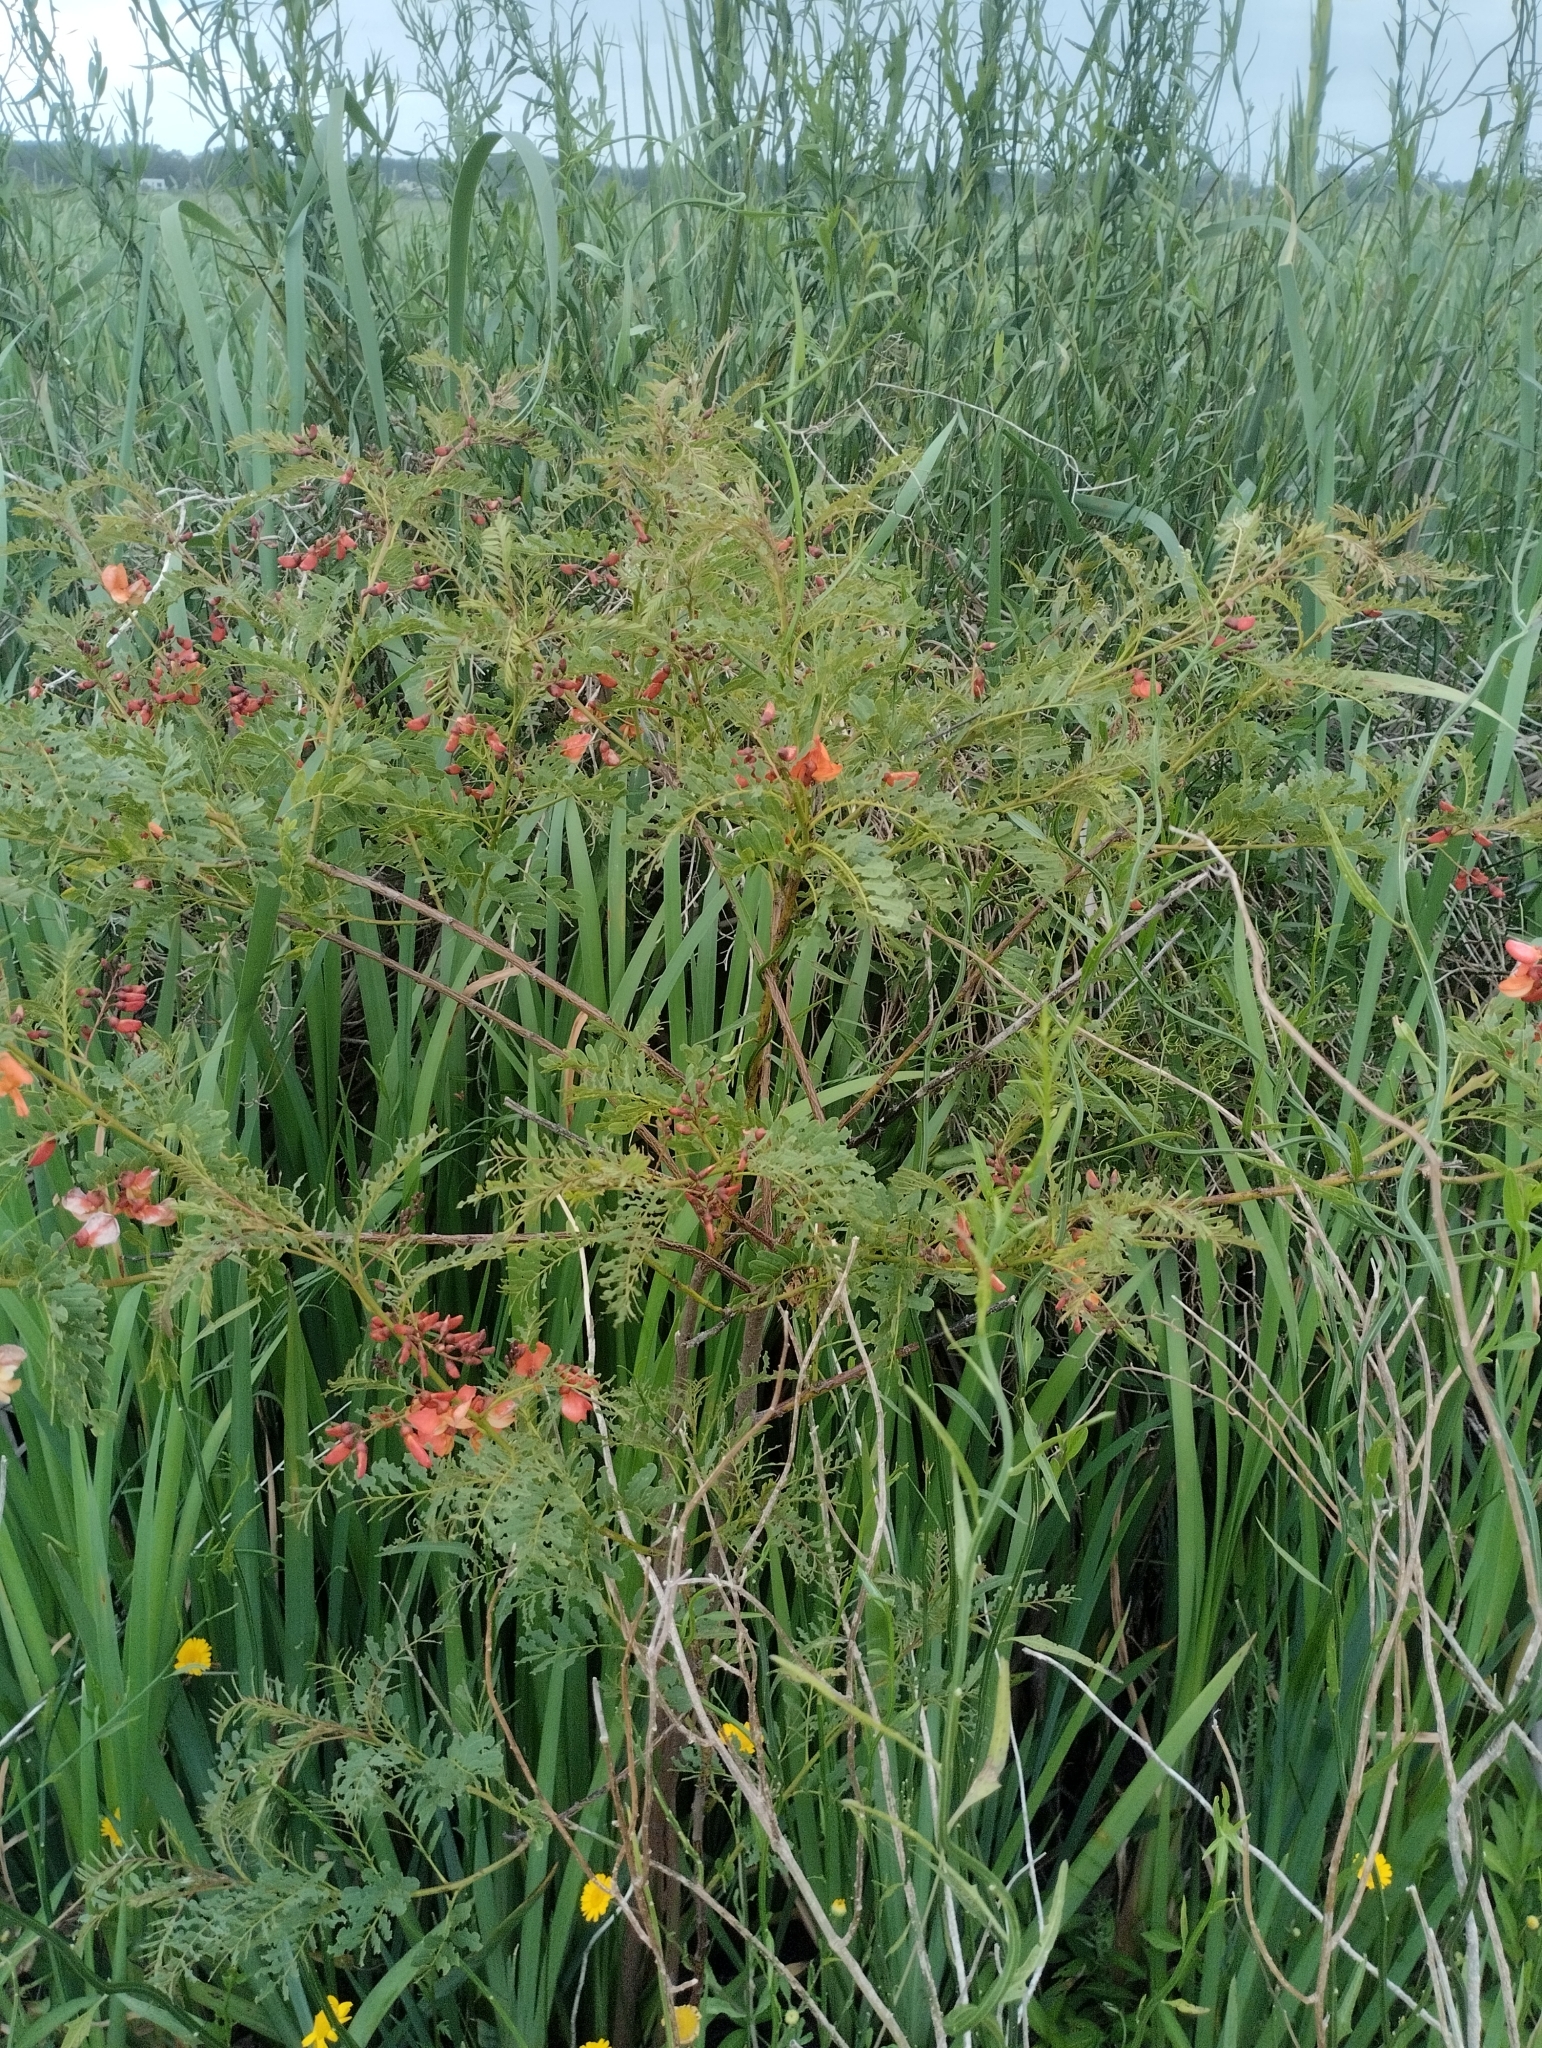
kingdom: Plantae
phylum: Tracheophyta
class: Magnoliopsida
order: Fabales
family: Fabaceae
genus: Sesbania
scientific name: Sesbania punicea
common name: Rattlebox
